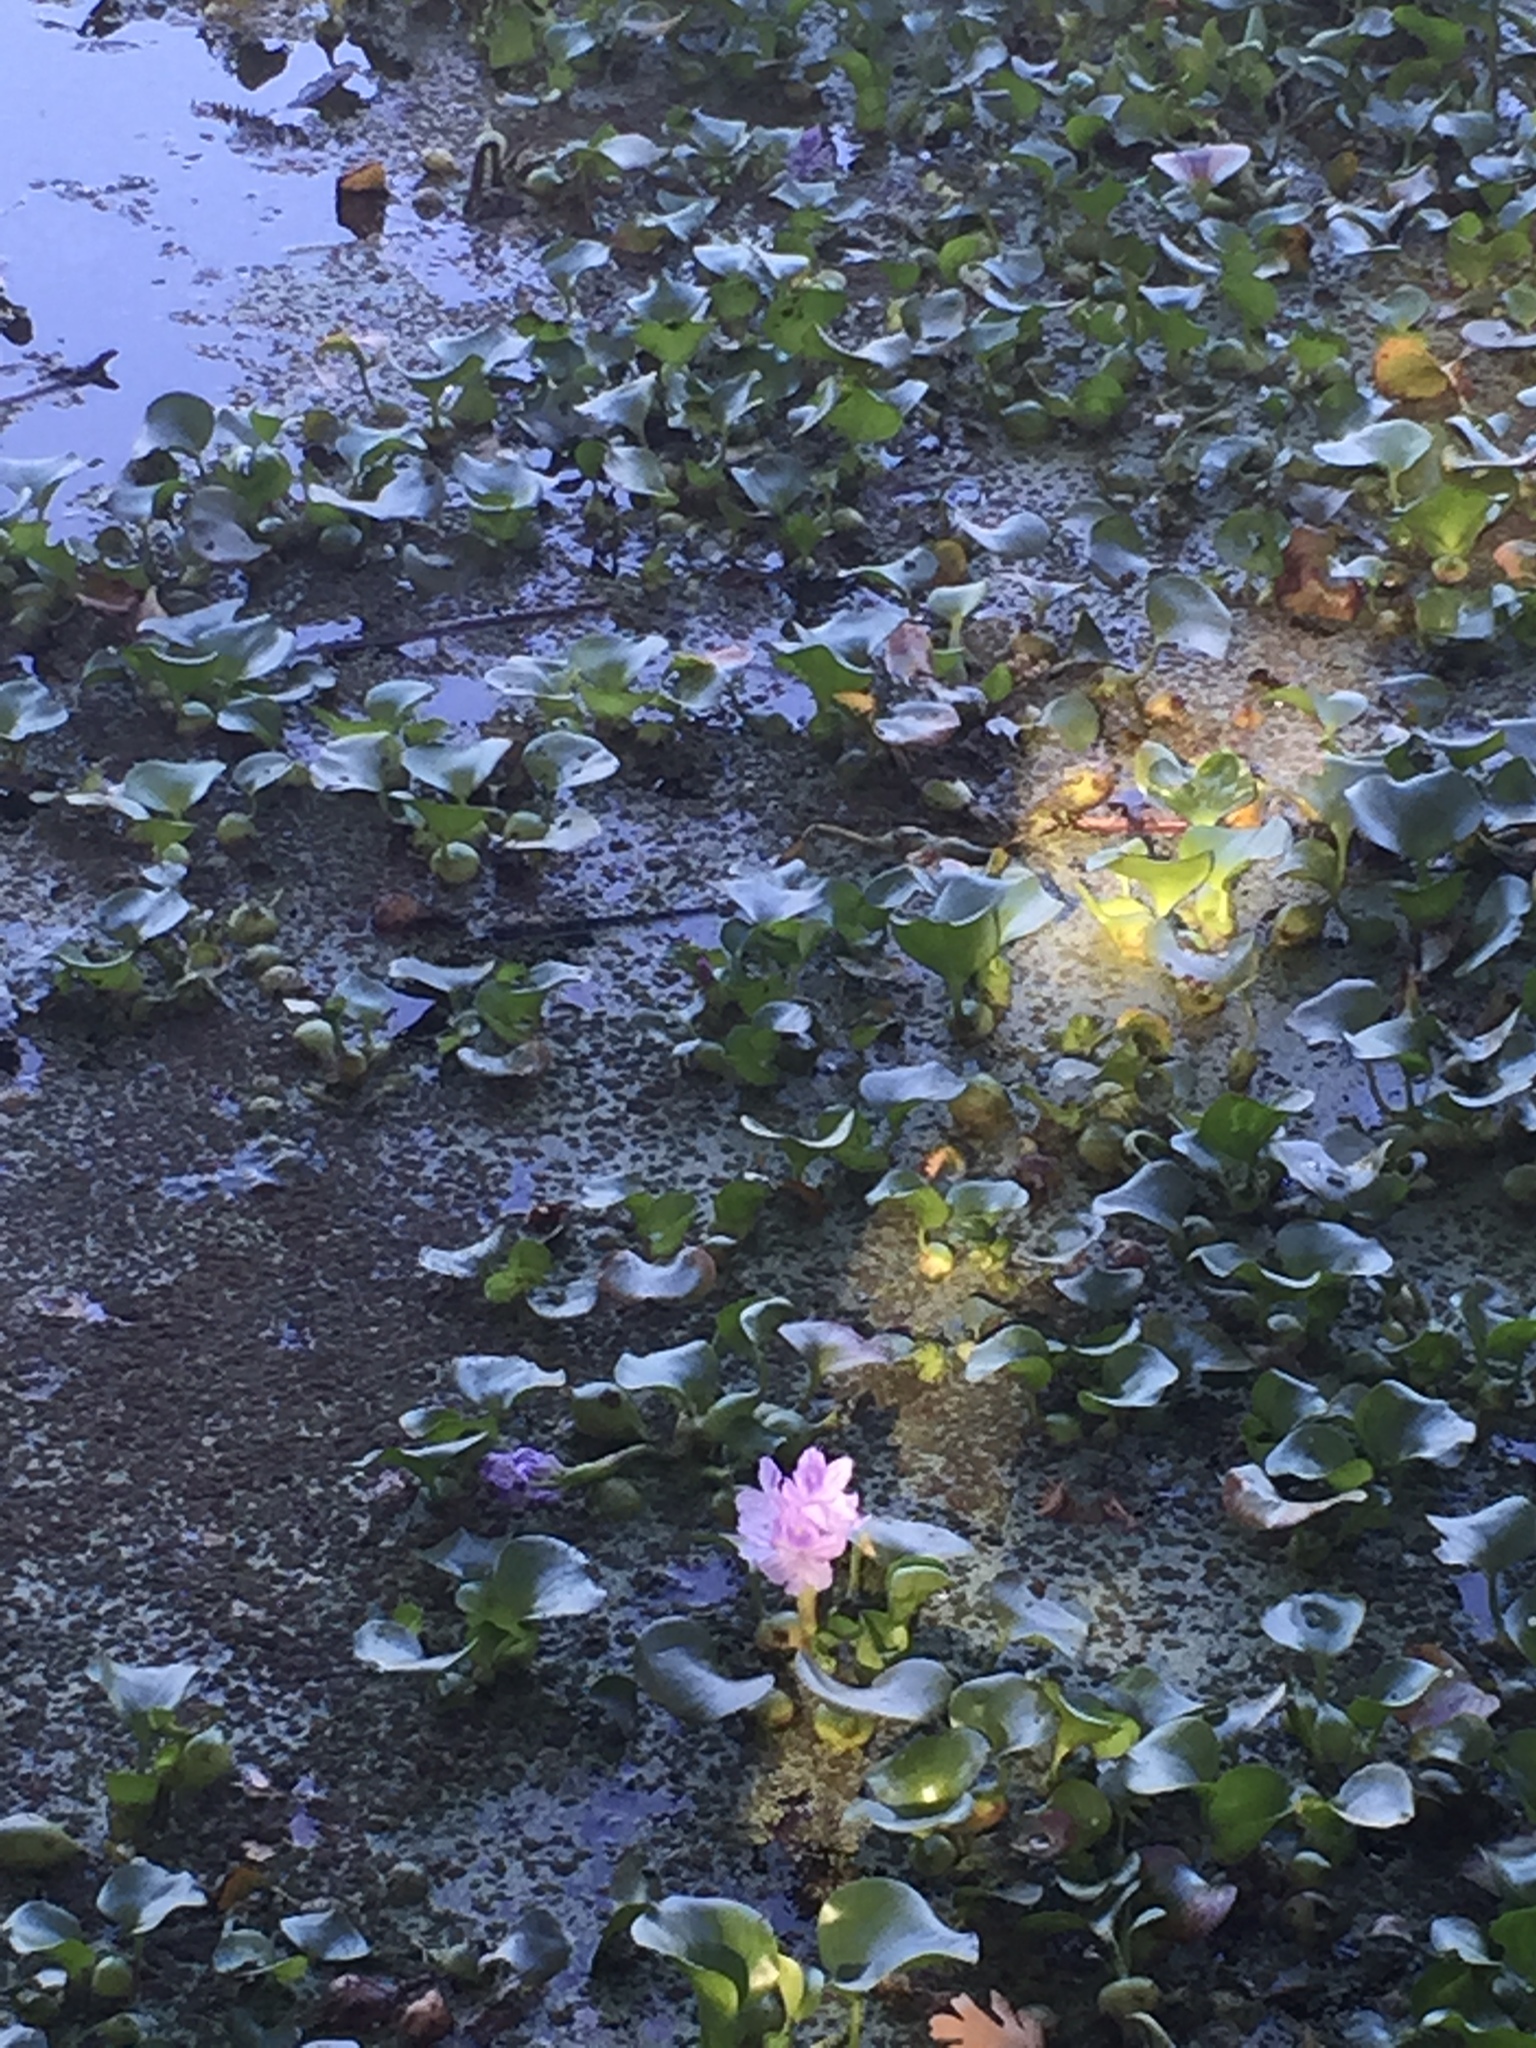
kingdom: Plantae
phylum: Tracheophyta
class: Liliopsida
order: Commelinales
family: Pontederiaceae
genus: Pontederia
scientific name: Pontederia crassipes
